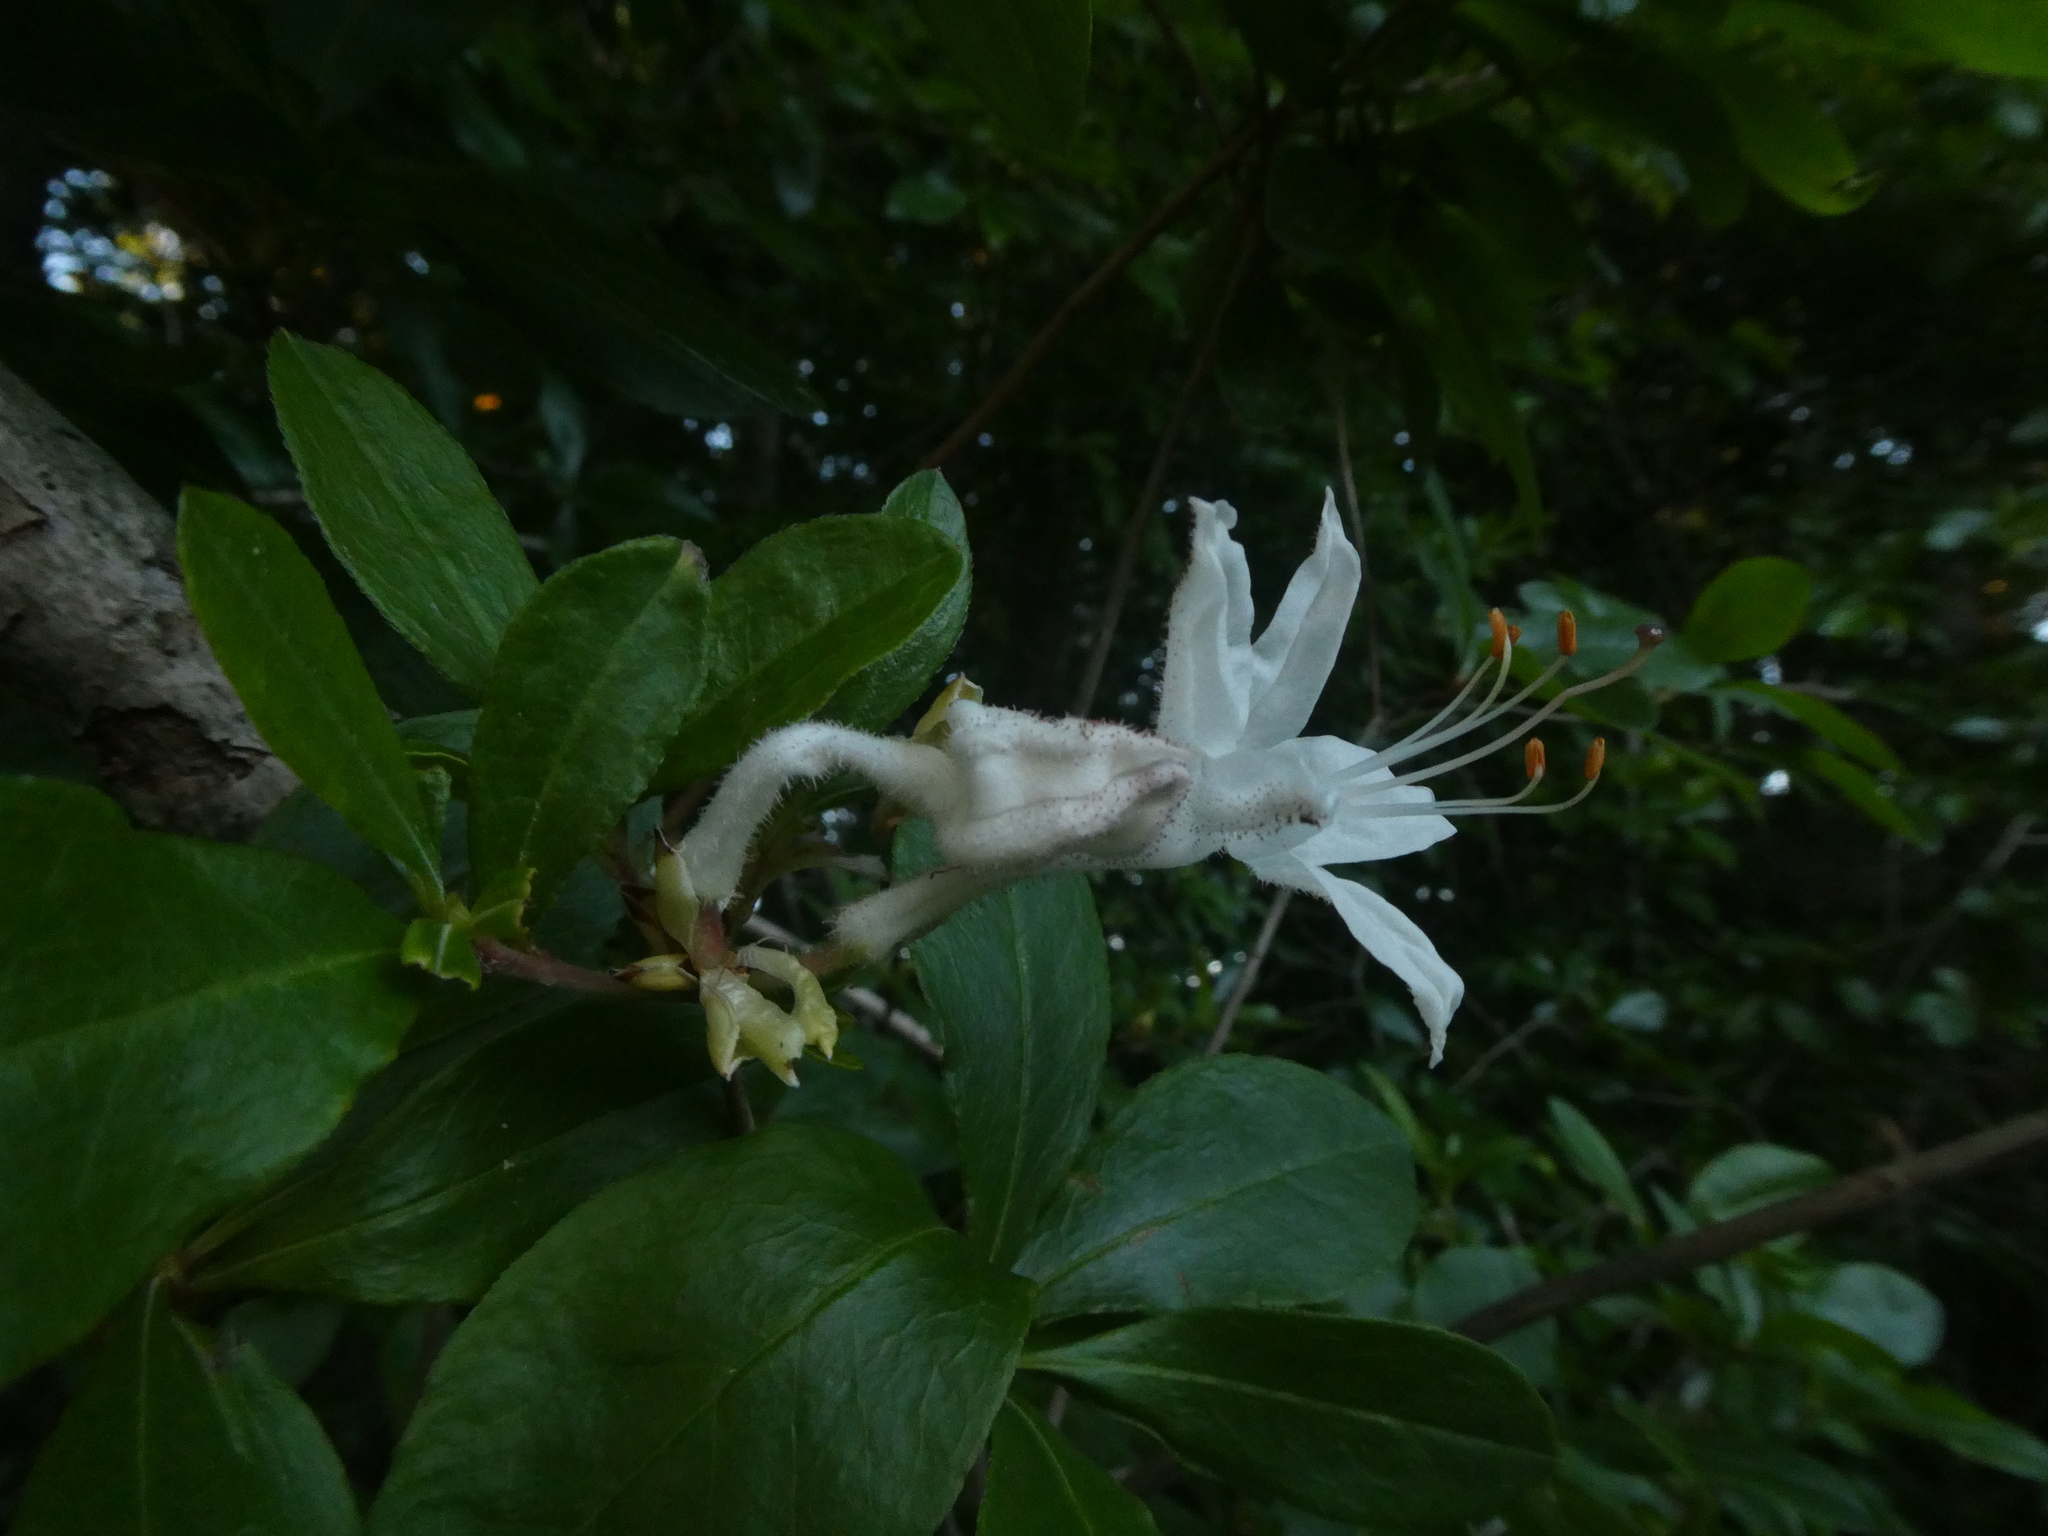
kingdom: Plantae
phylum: Tracheophyta
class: Magnoliopsida
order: Ericales
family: Ericaceae
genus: Rhododendron
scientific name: Rhododendron viscosum
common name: Clammy azalea
